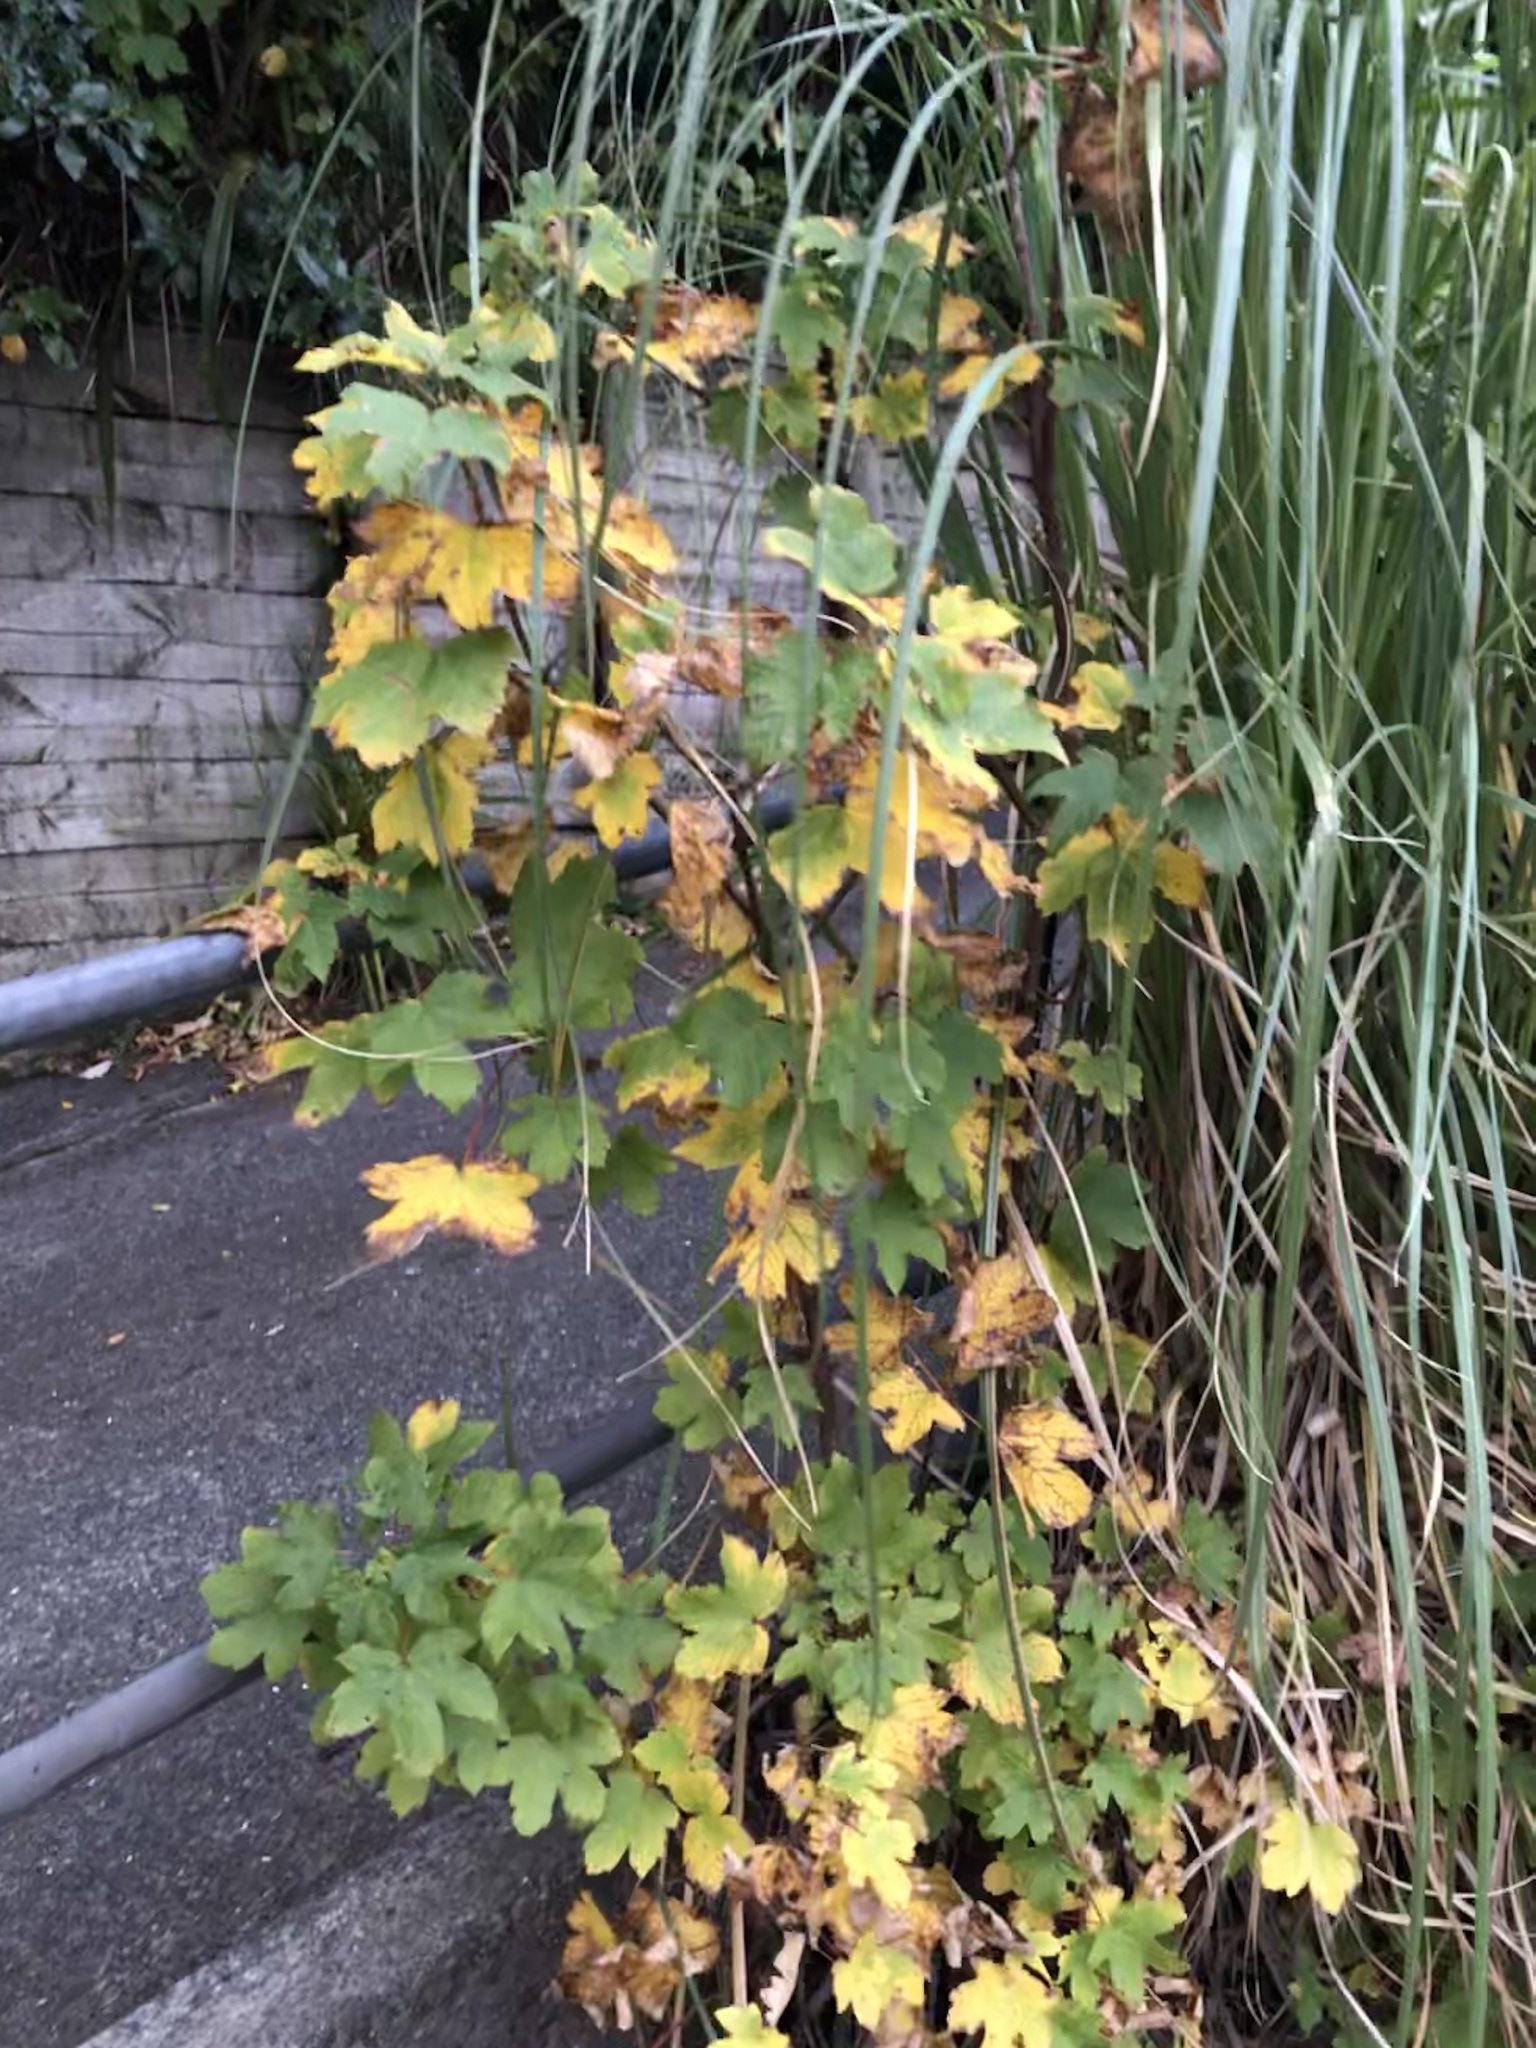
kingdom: Plantae
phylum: Tracheophyta
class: Magnoliopsida
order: Sapindales
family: Sapindaceae
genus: Acer
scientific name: Acer pseudoplatanus
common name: Sycamore
